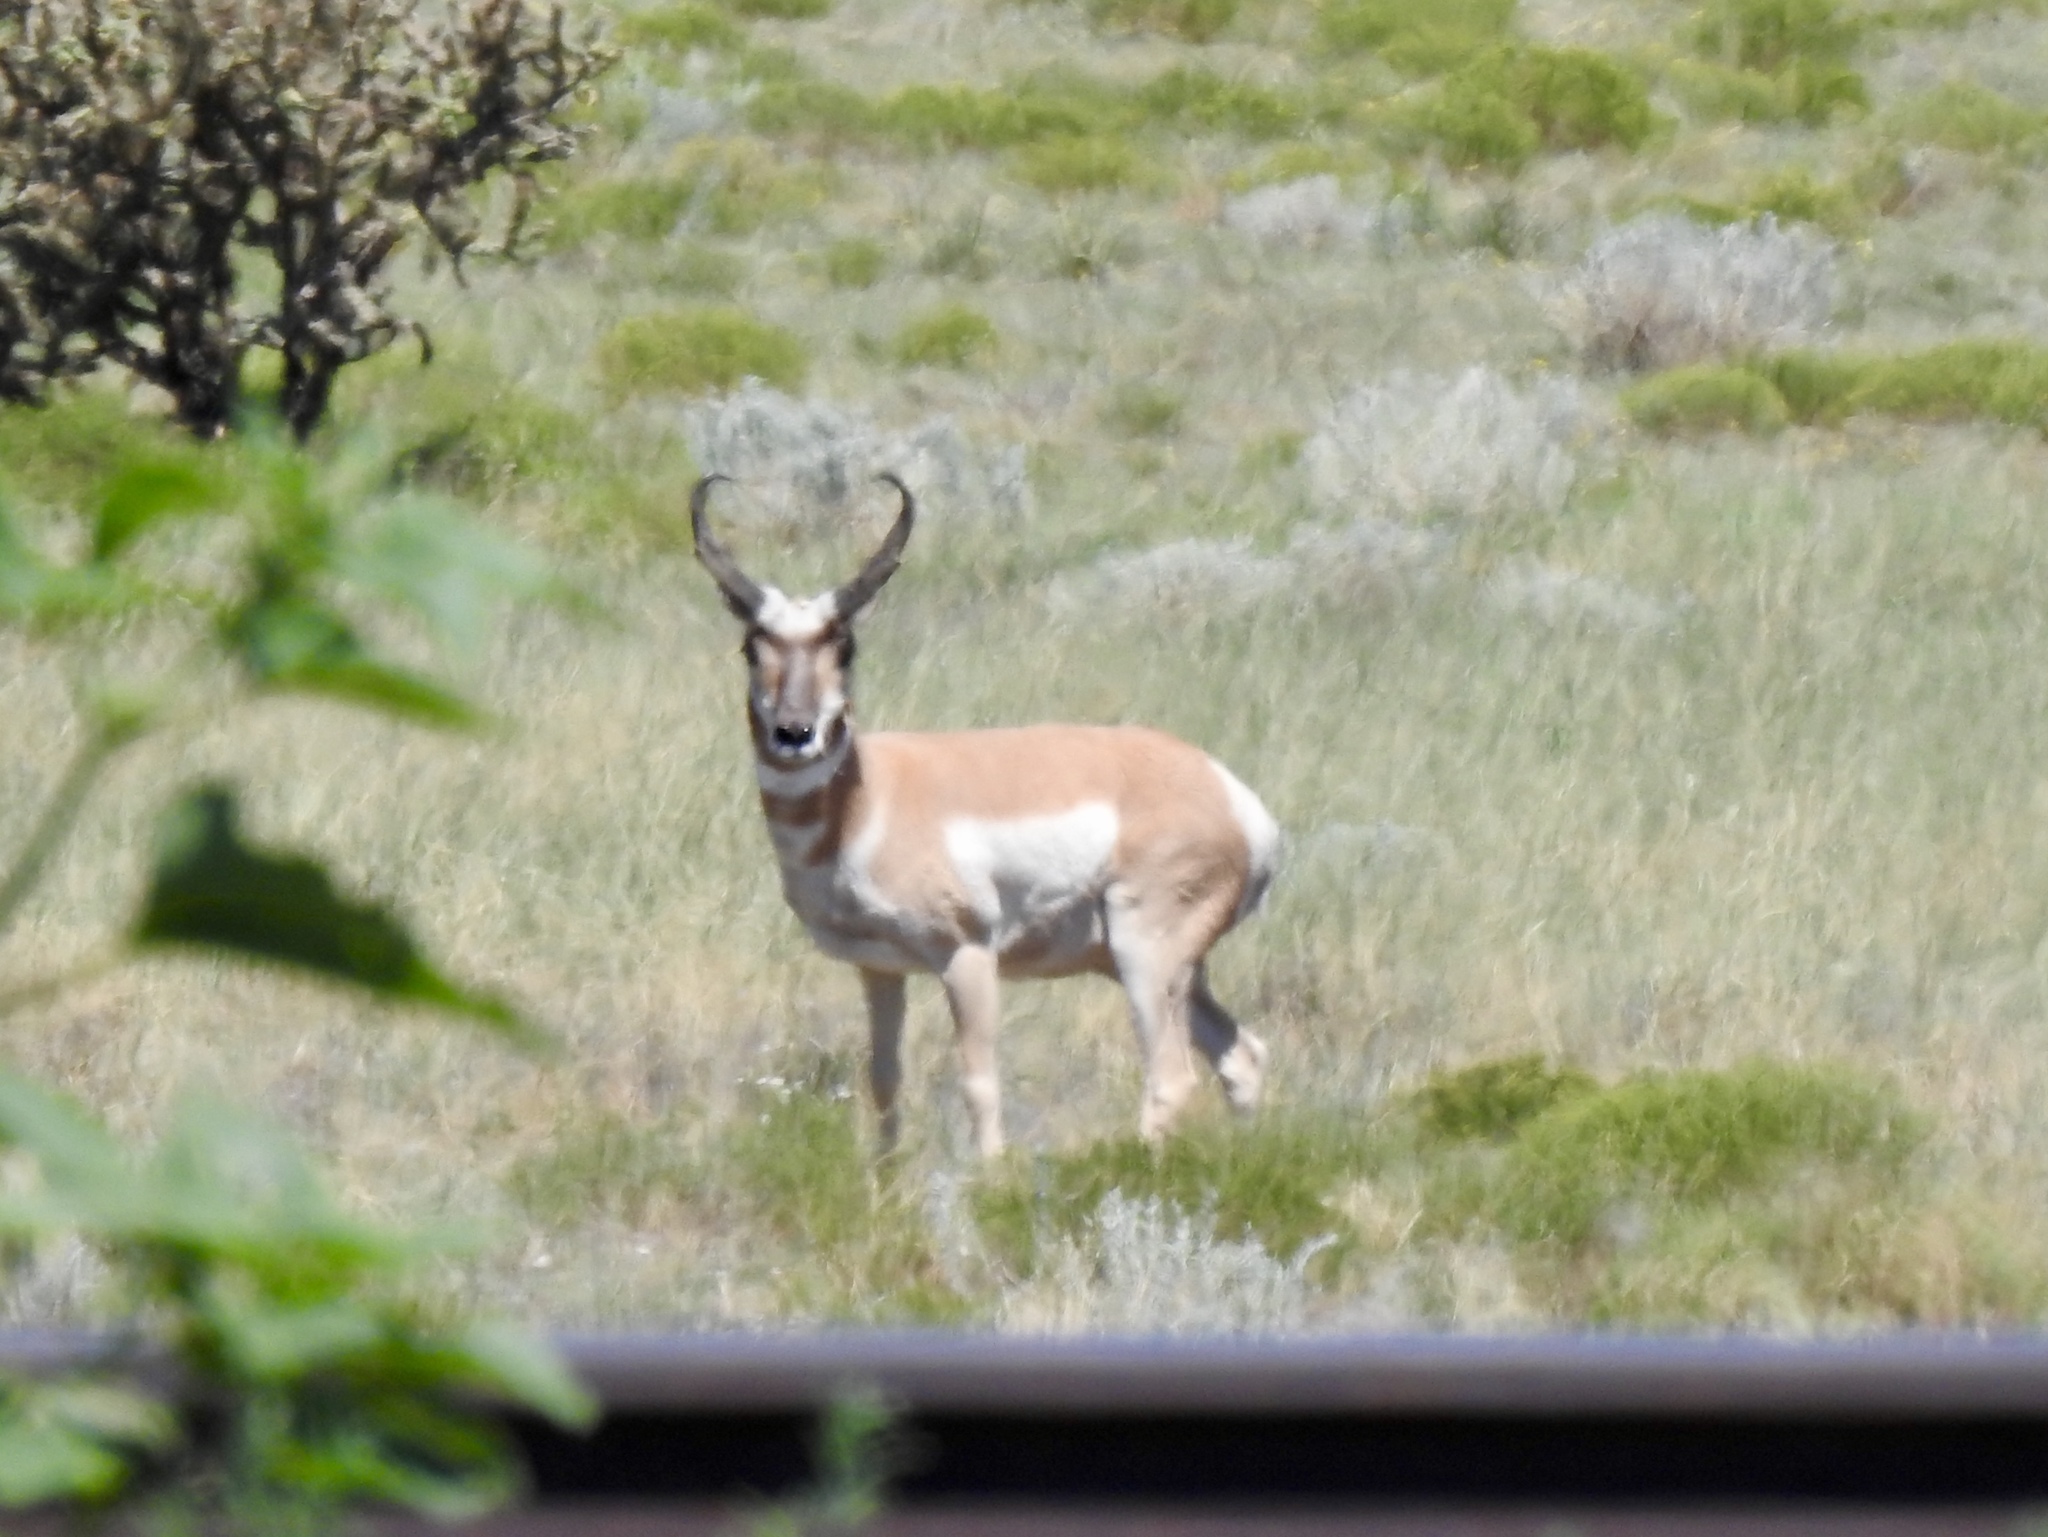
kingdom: Animalia
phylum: Chordata
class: Mammalia
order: Artiodactyla
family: Antilocapridae
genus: Antilocapra
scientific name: Antilocapra americana
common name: Pronghorn
